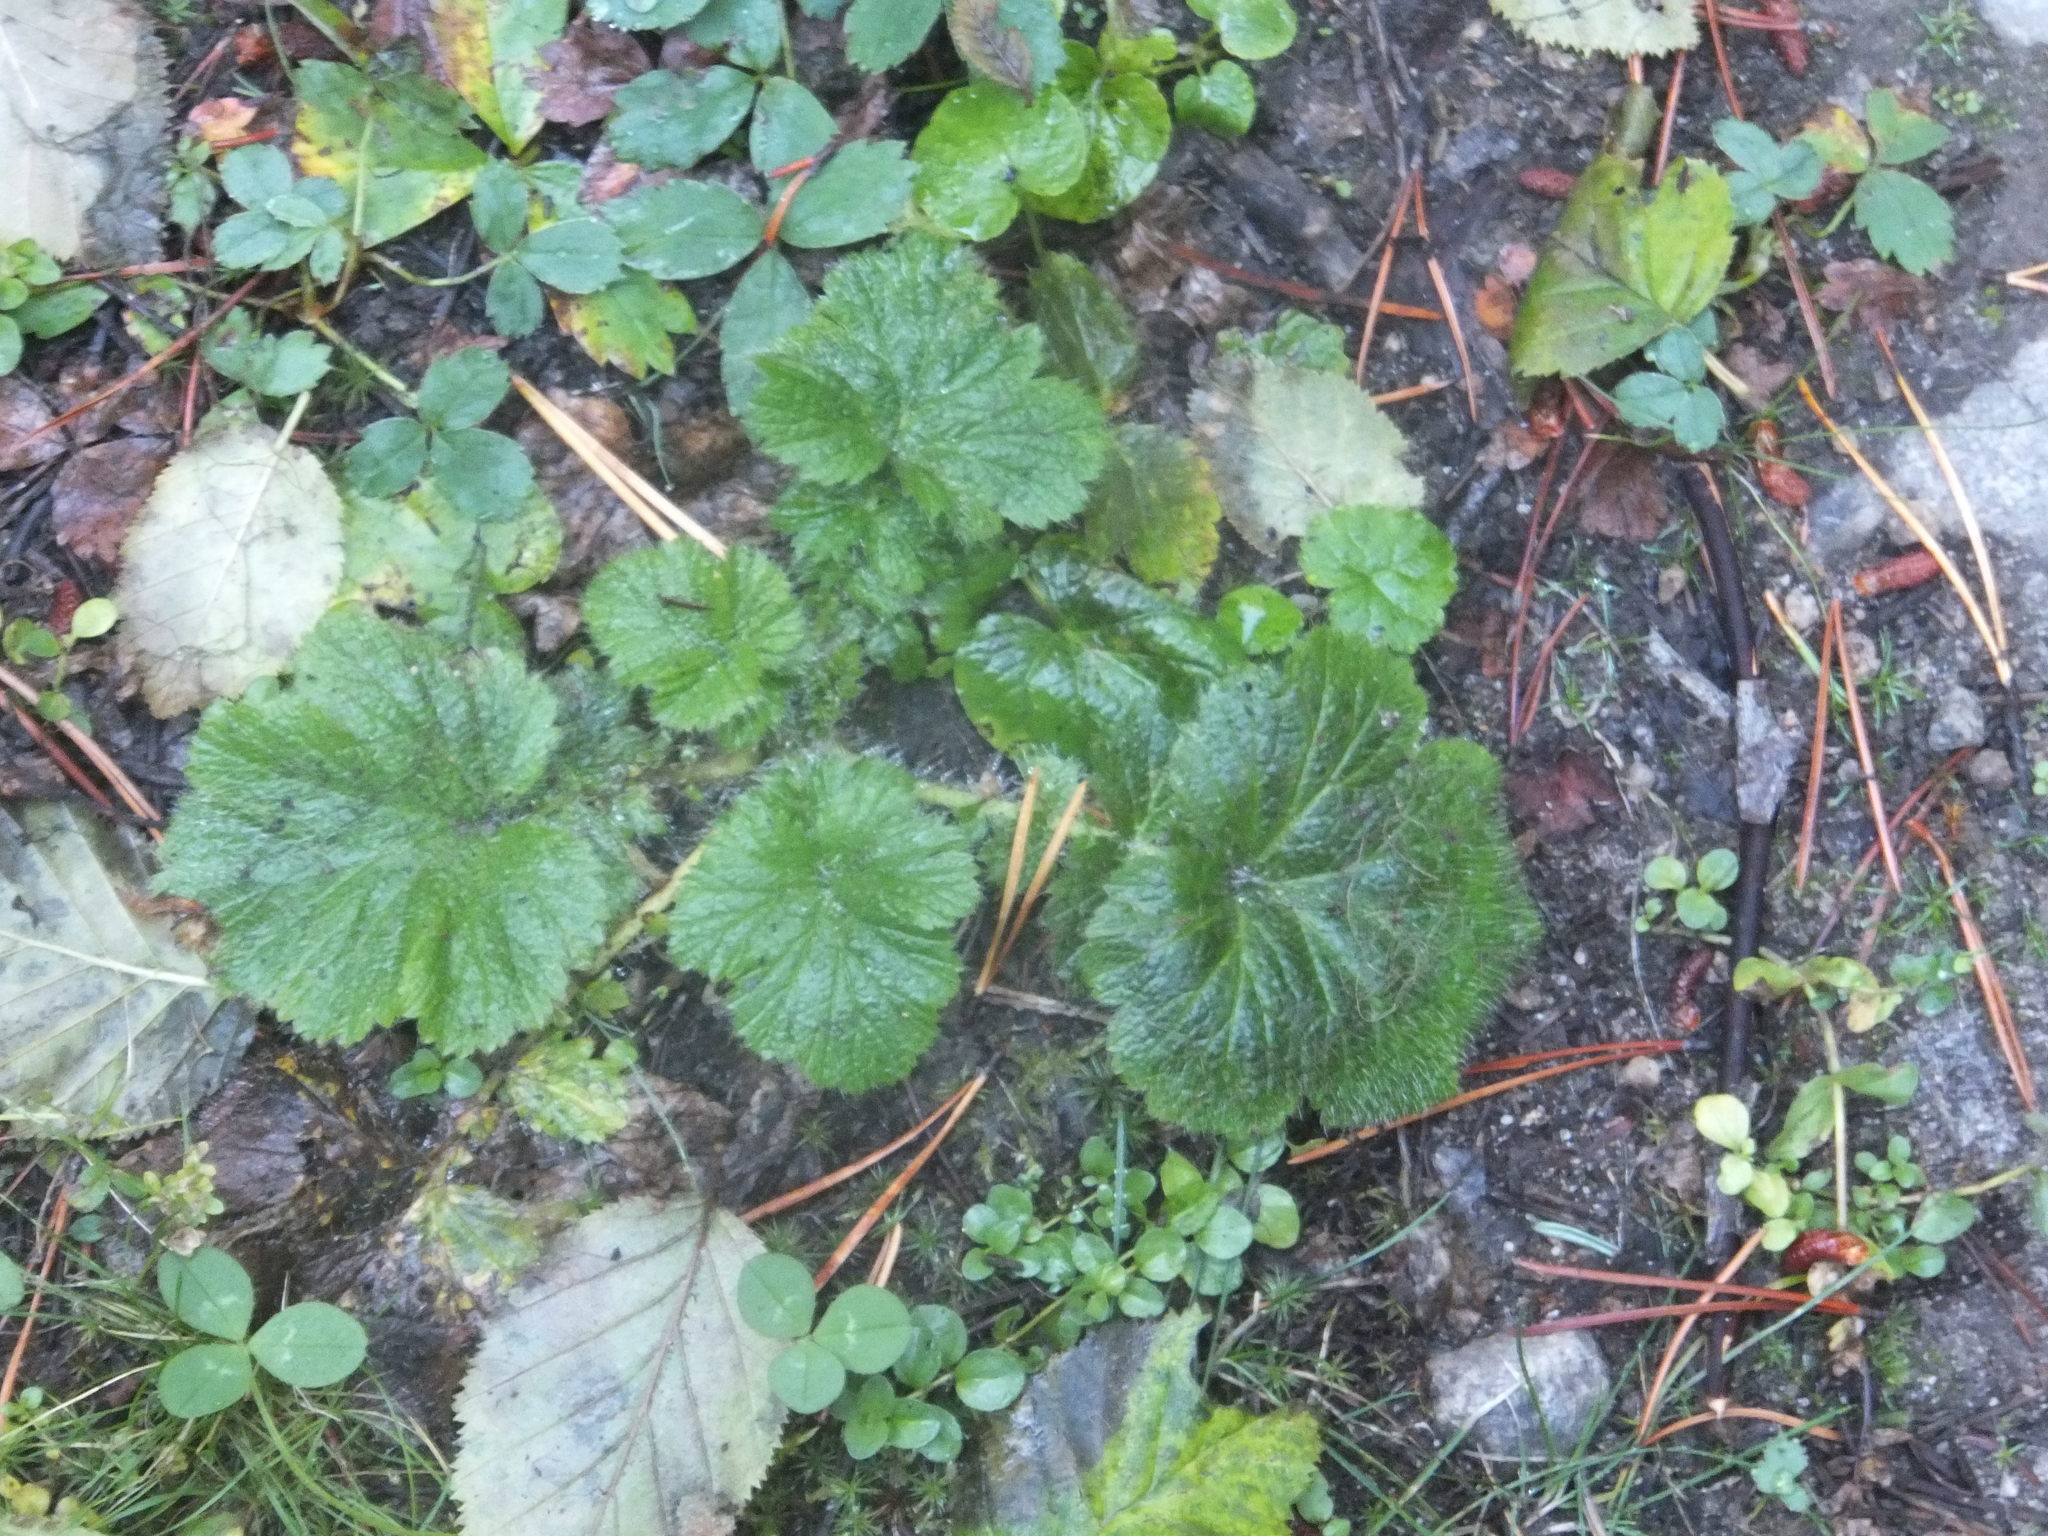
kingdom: Plantae
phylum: Tracheophyta
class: Magnoliopsida
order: Rosales
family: Rosaceae
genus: Geum
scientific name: Geum macrophyllum
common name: Large-leaved avens
